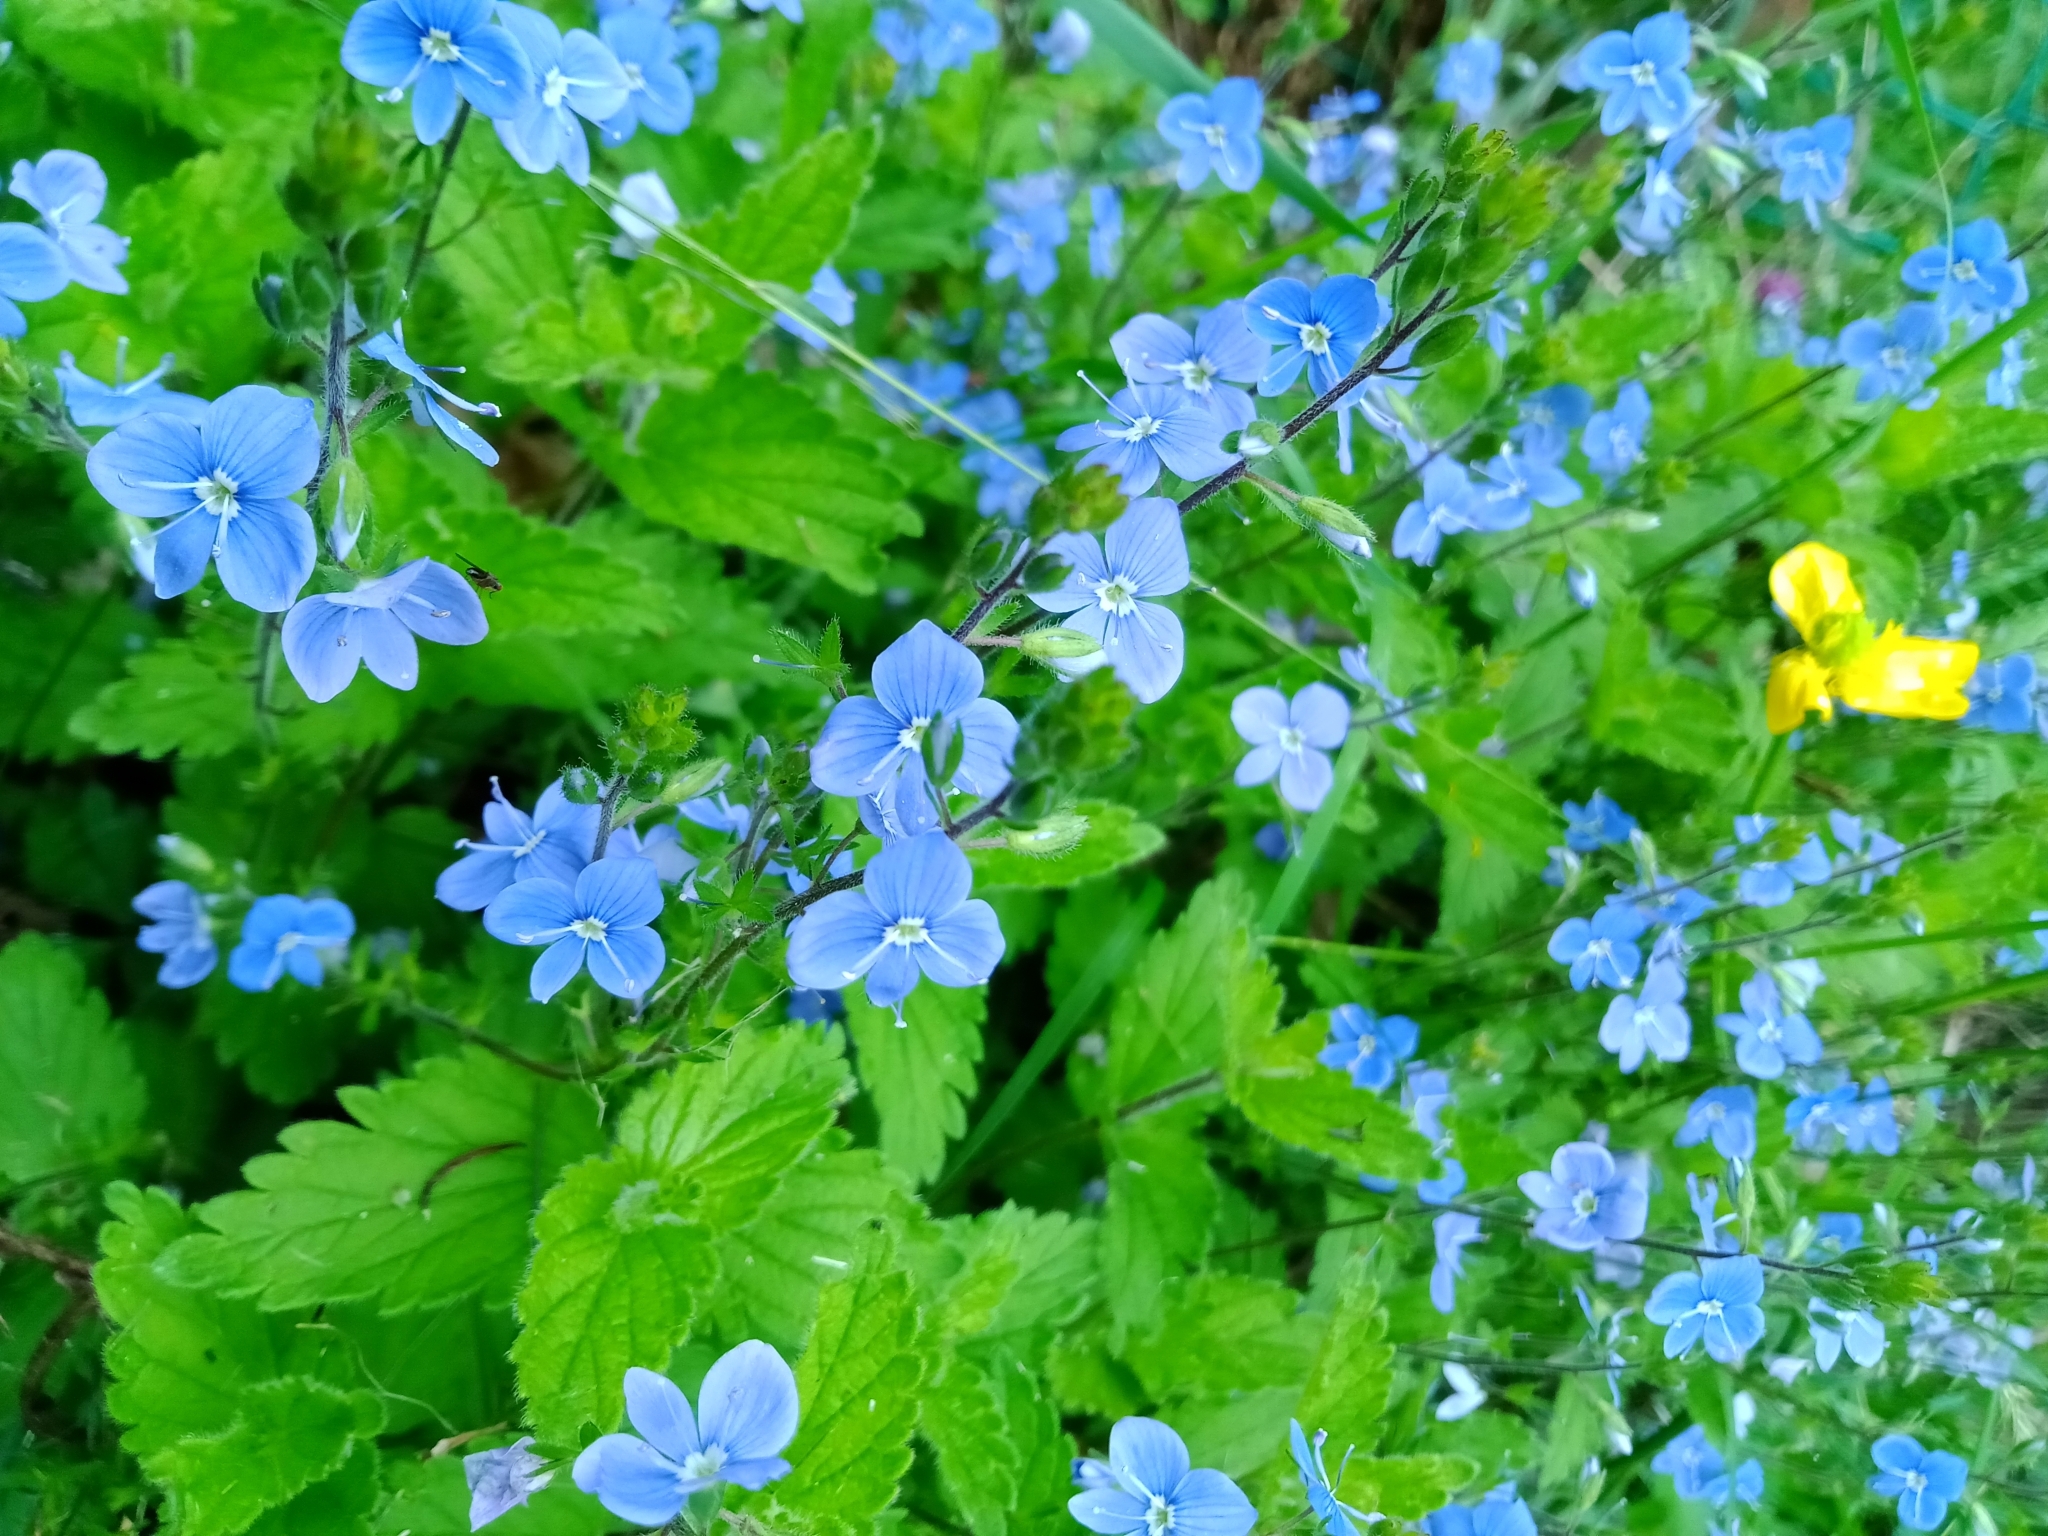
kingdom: Plantae
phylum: Tracheophyta
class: Magnoliopsida
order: Lamiales
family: Plantaginaceae
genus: Veronica
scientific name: Veronica chamaedrys
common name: Germander speedwell
